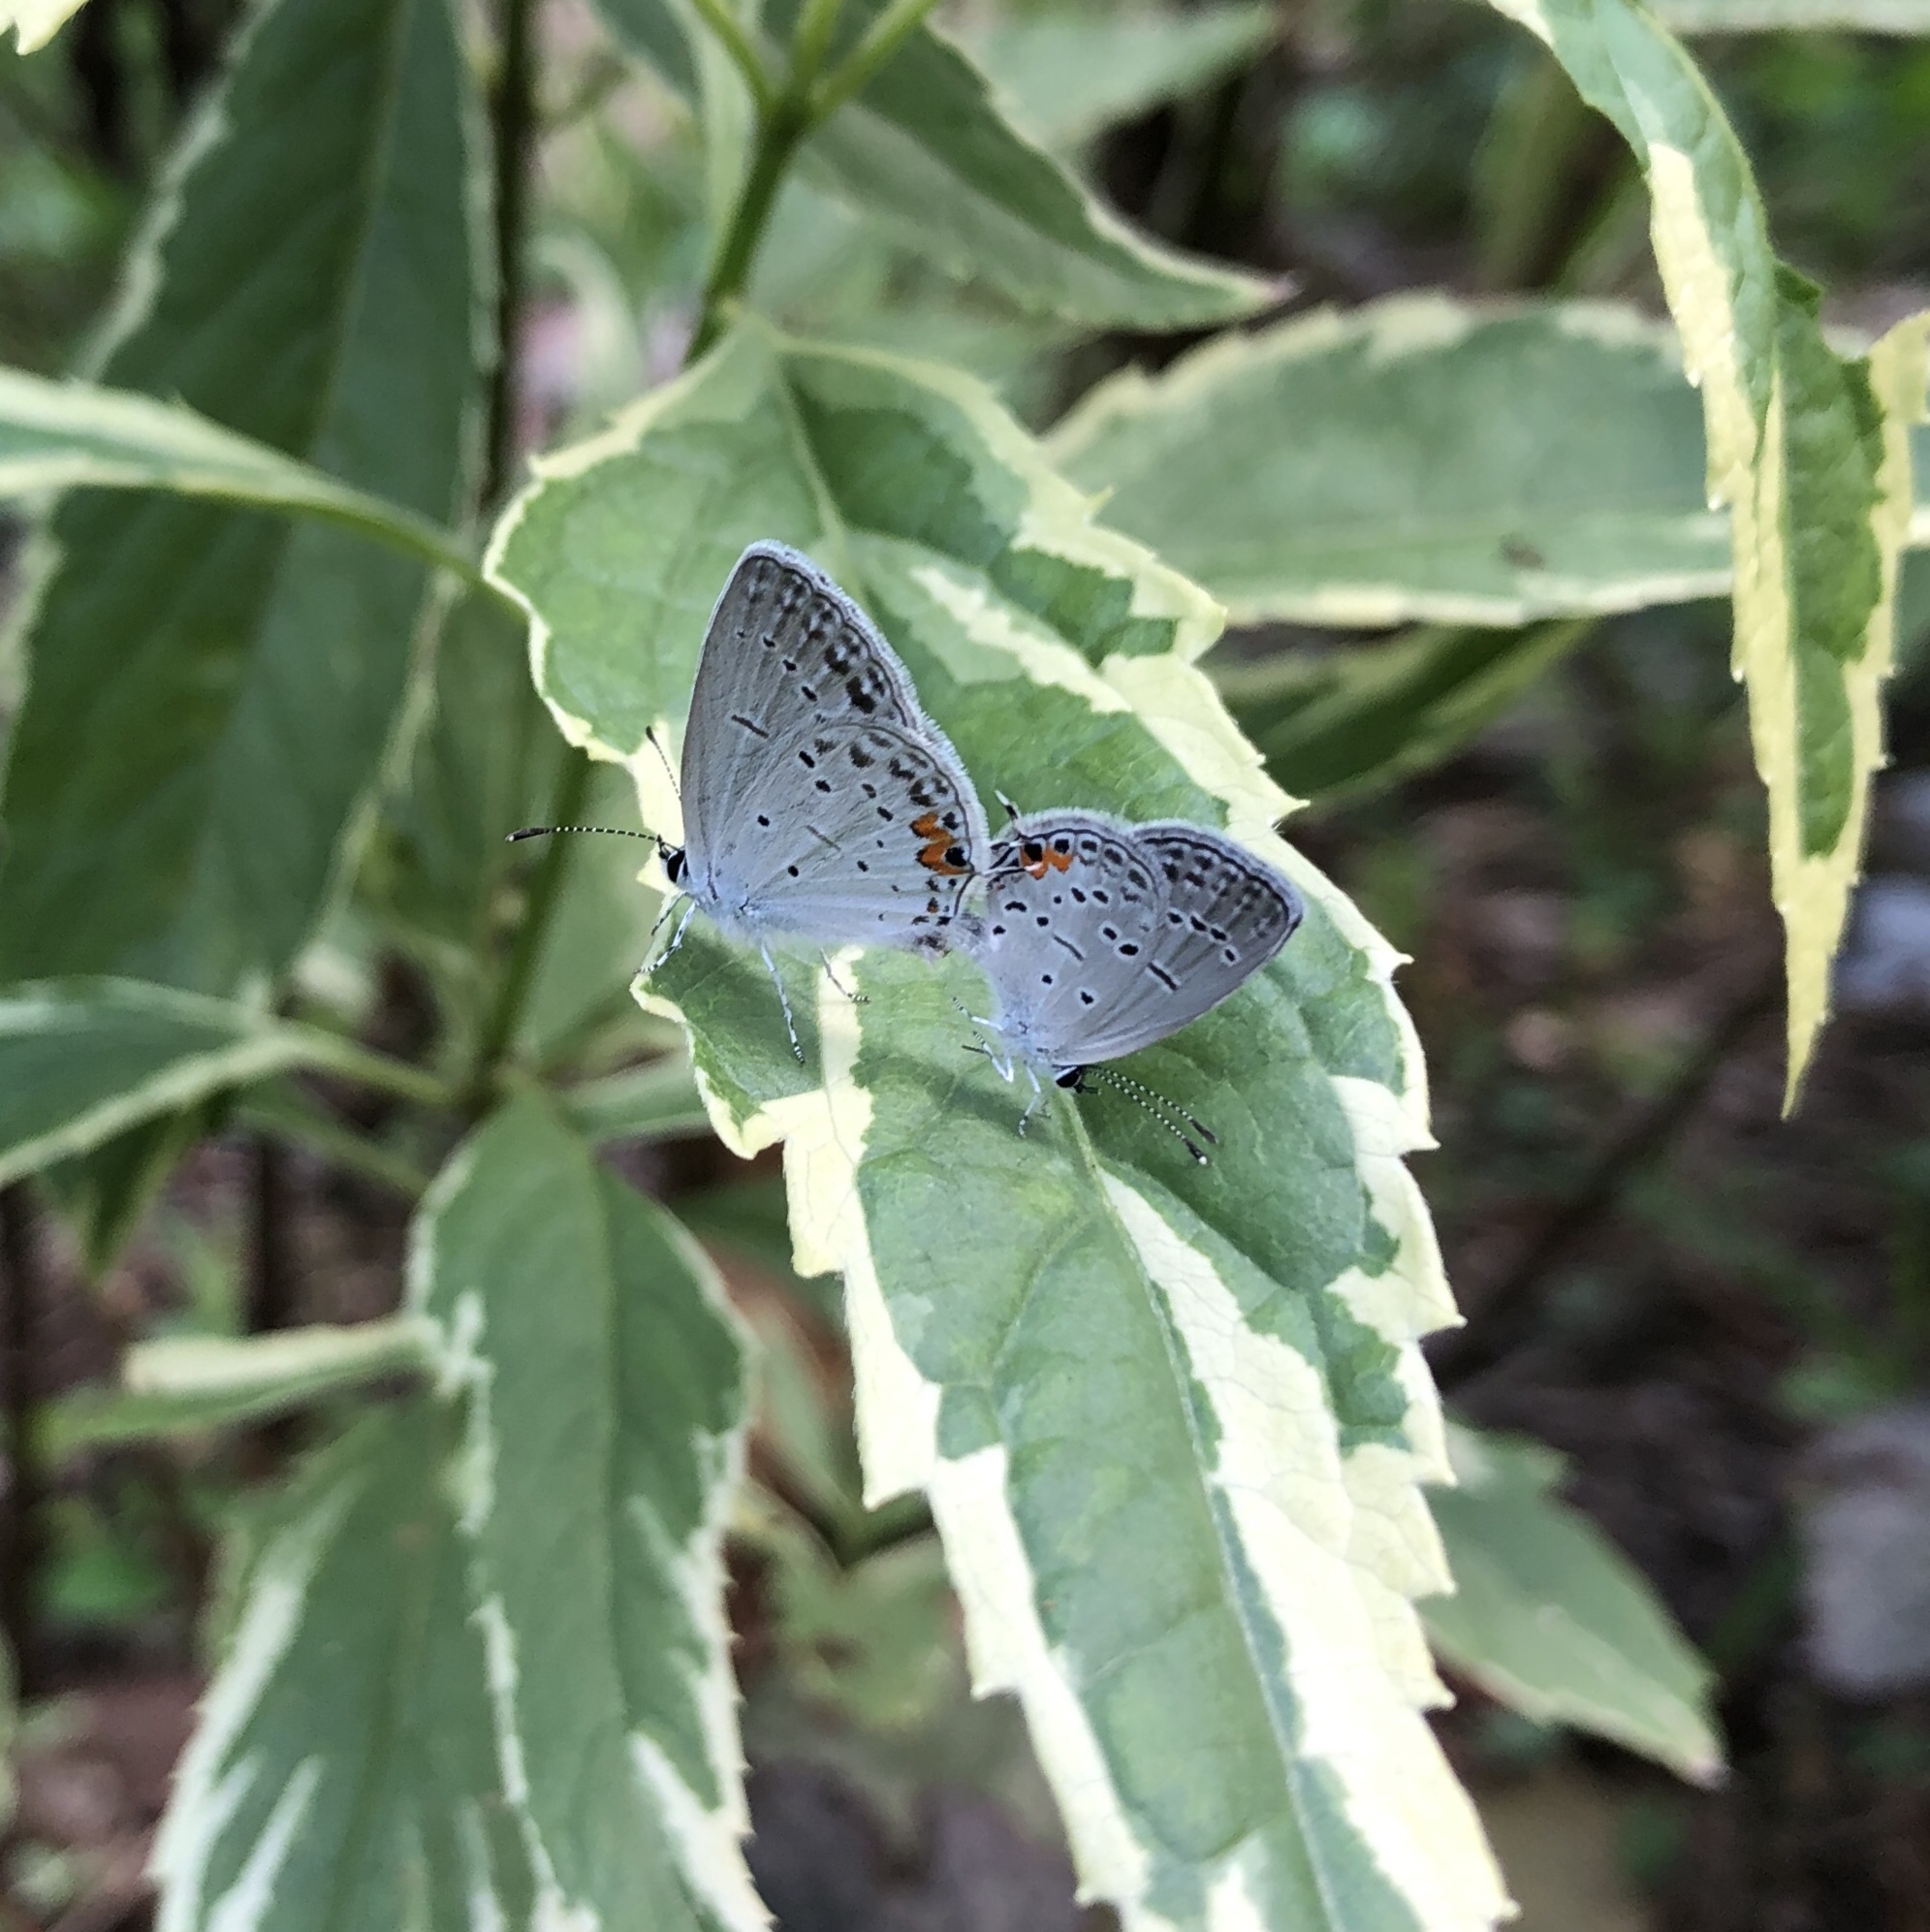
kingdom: Animalia
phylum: Arthropoda
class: Insecta
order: Lepidoptera
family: Lycaenidae
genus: Elkalyce
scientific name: Elkalyce comyntas
